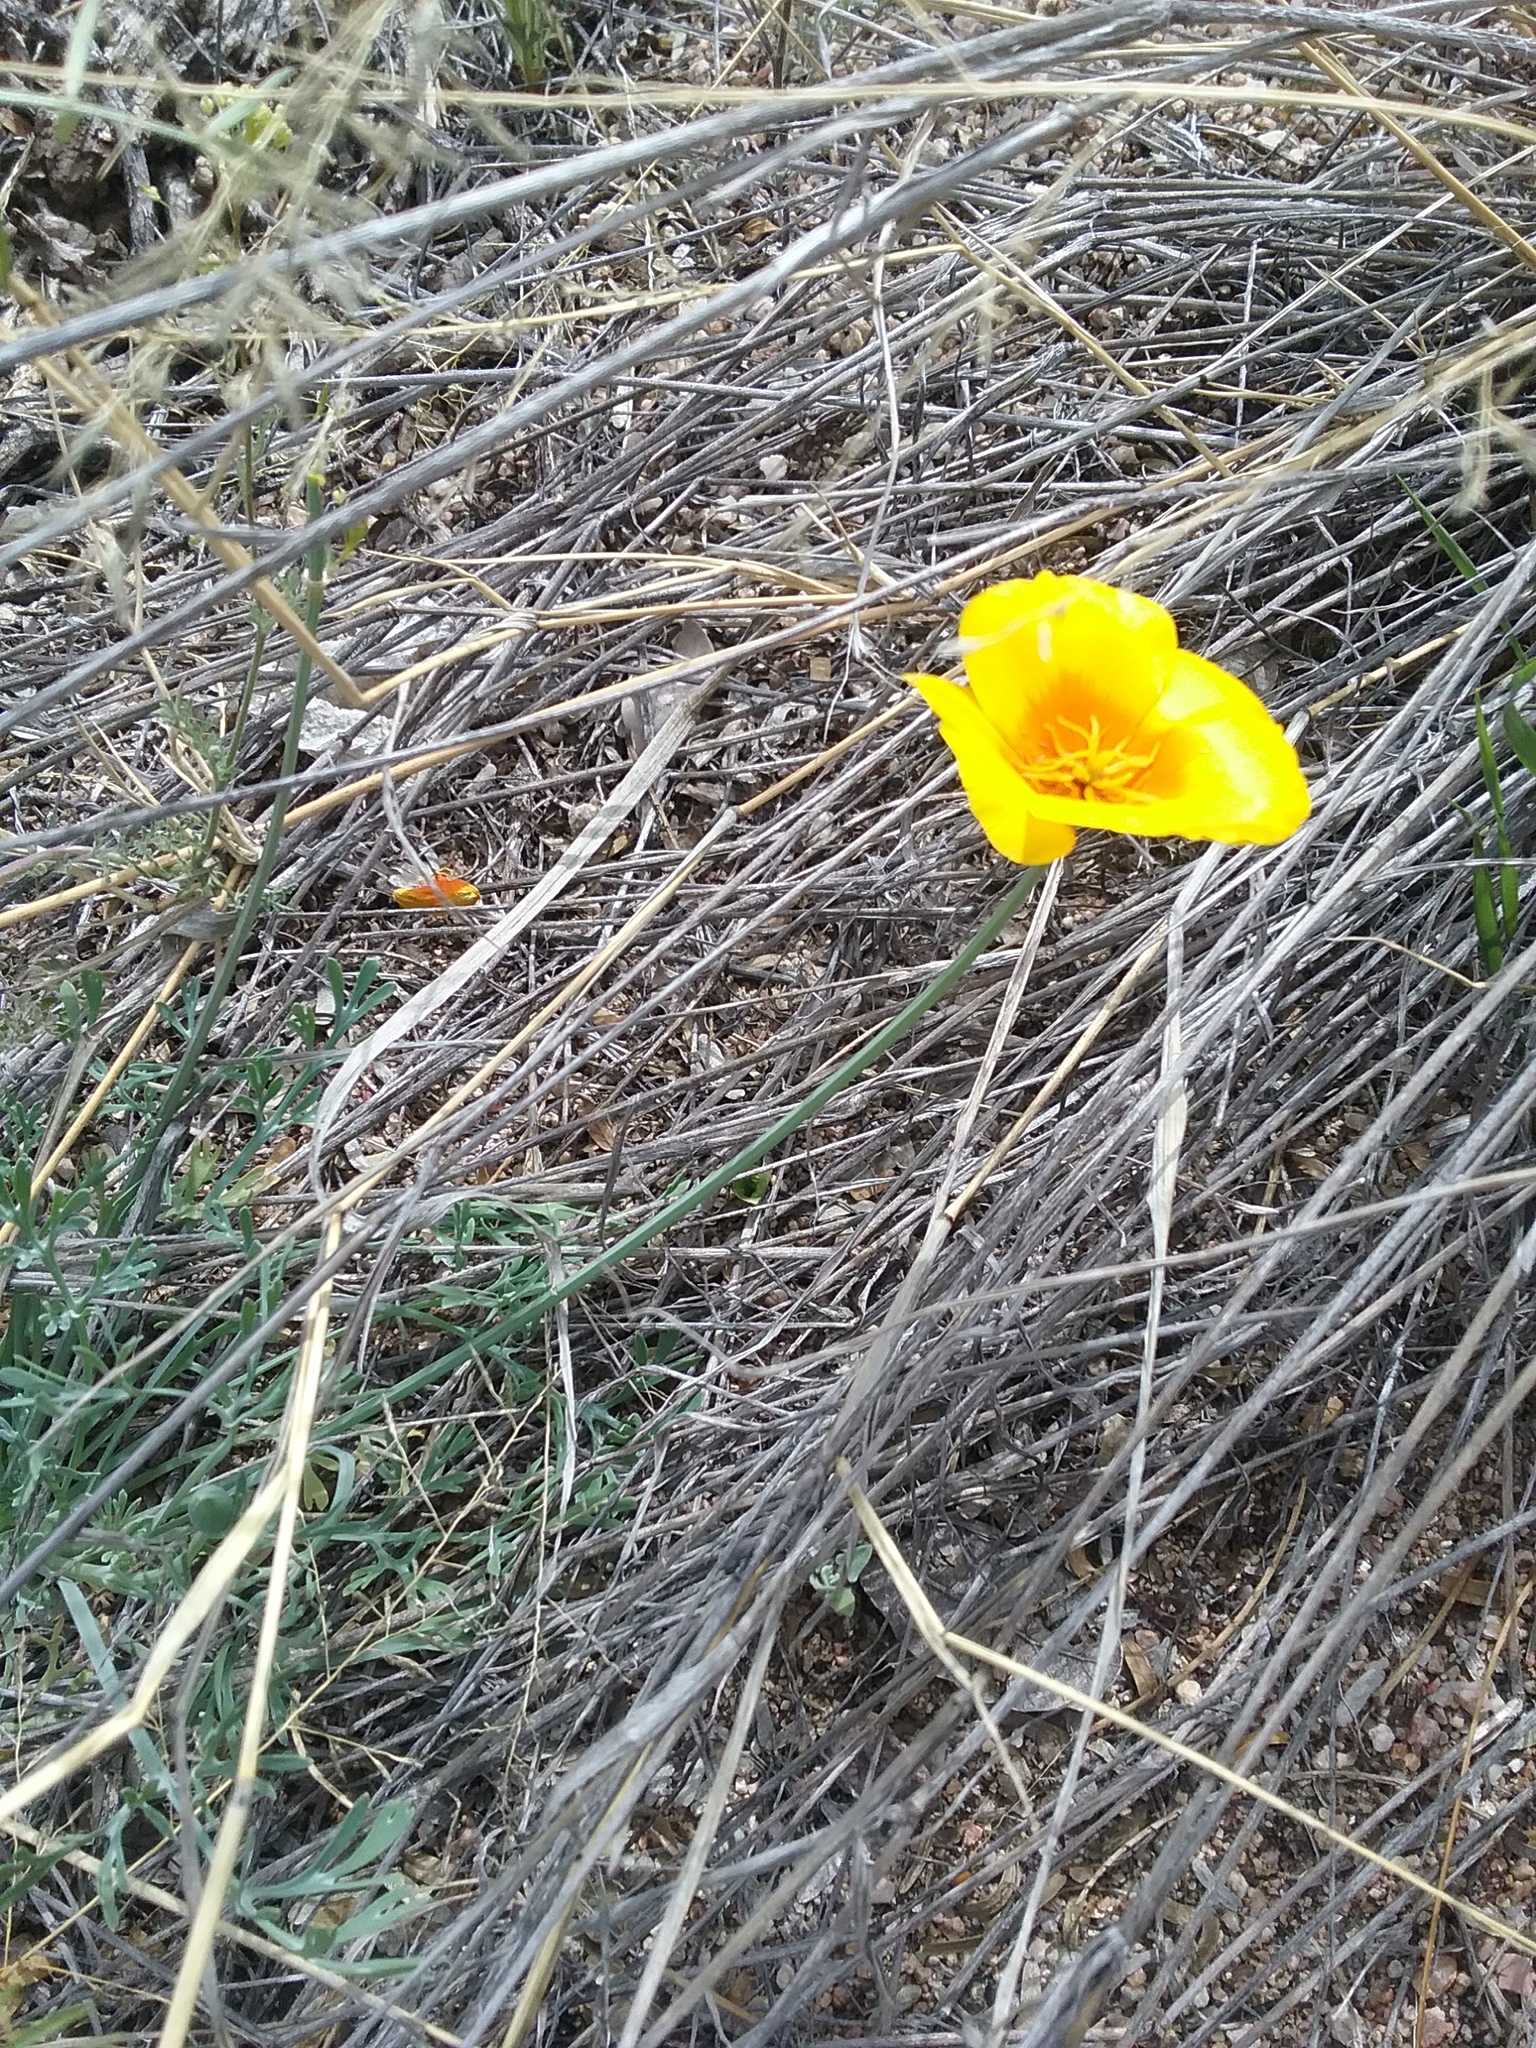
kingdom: Plantae
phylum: Tracheophyta
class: Magnoliopsida
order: Ranunculales
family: Papaveraceae
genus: Eschscholzia
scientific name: Eschscholzia californica
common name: California poppy
